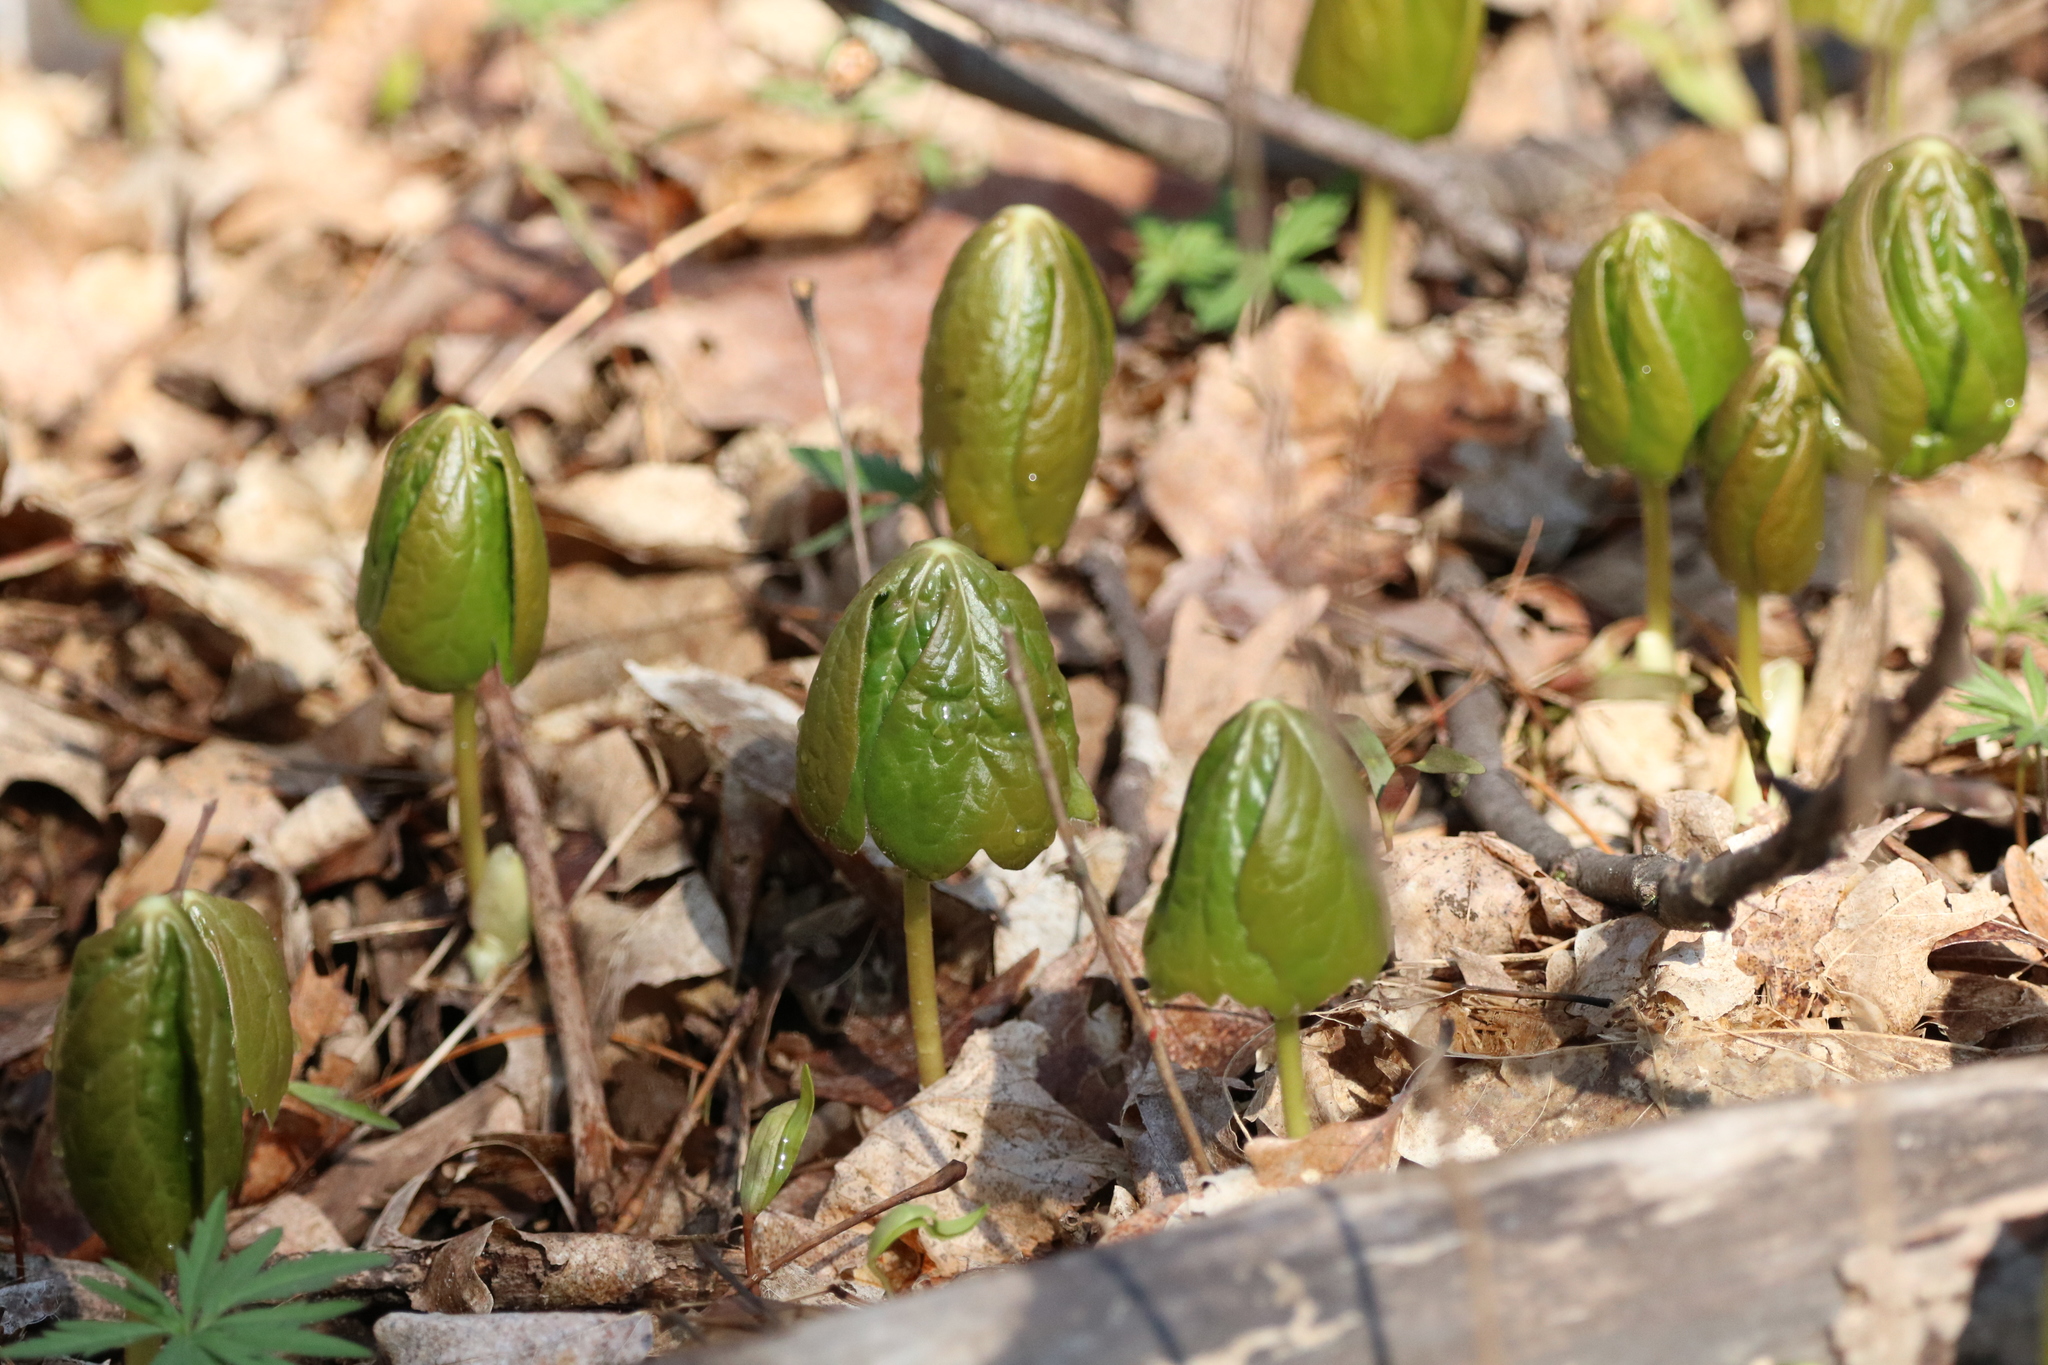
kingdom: Plantae
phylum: Tracheophyta
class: Magnoliopsida
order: Ranunculales
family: Berberidaceae
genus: Podophyllum
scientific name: Podophyllum peltatum
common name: Wild mandrake
